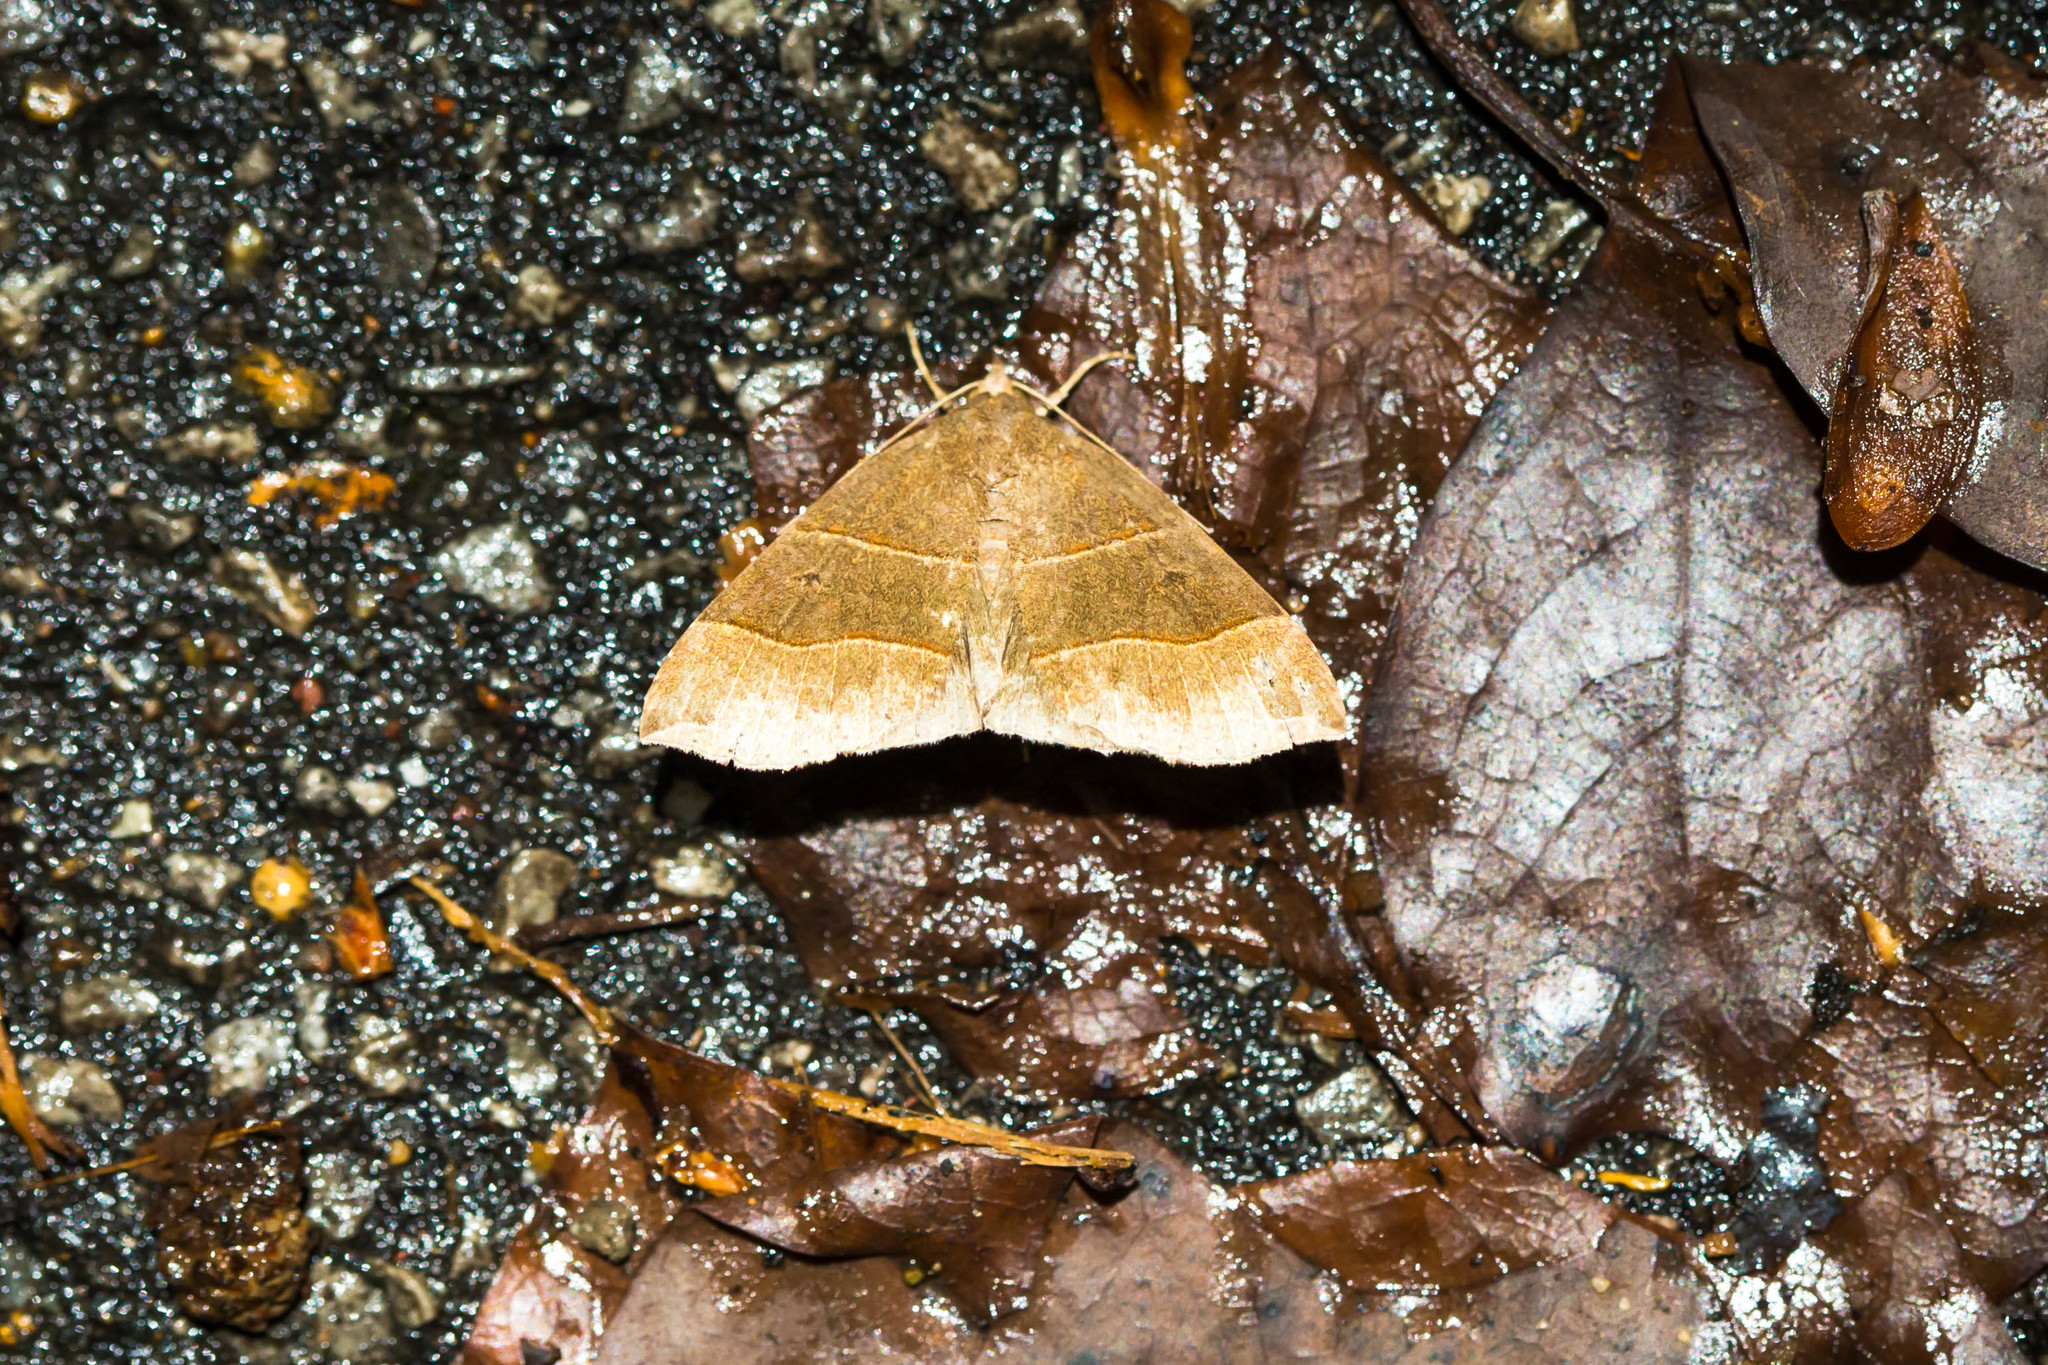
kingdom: Animalia
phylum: Arthropoda
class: Insecta
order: Lepidoptera
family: Erebidae
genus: Parallelia
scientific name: Parallelia bistriaris
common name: Maple looper moth
